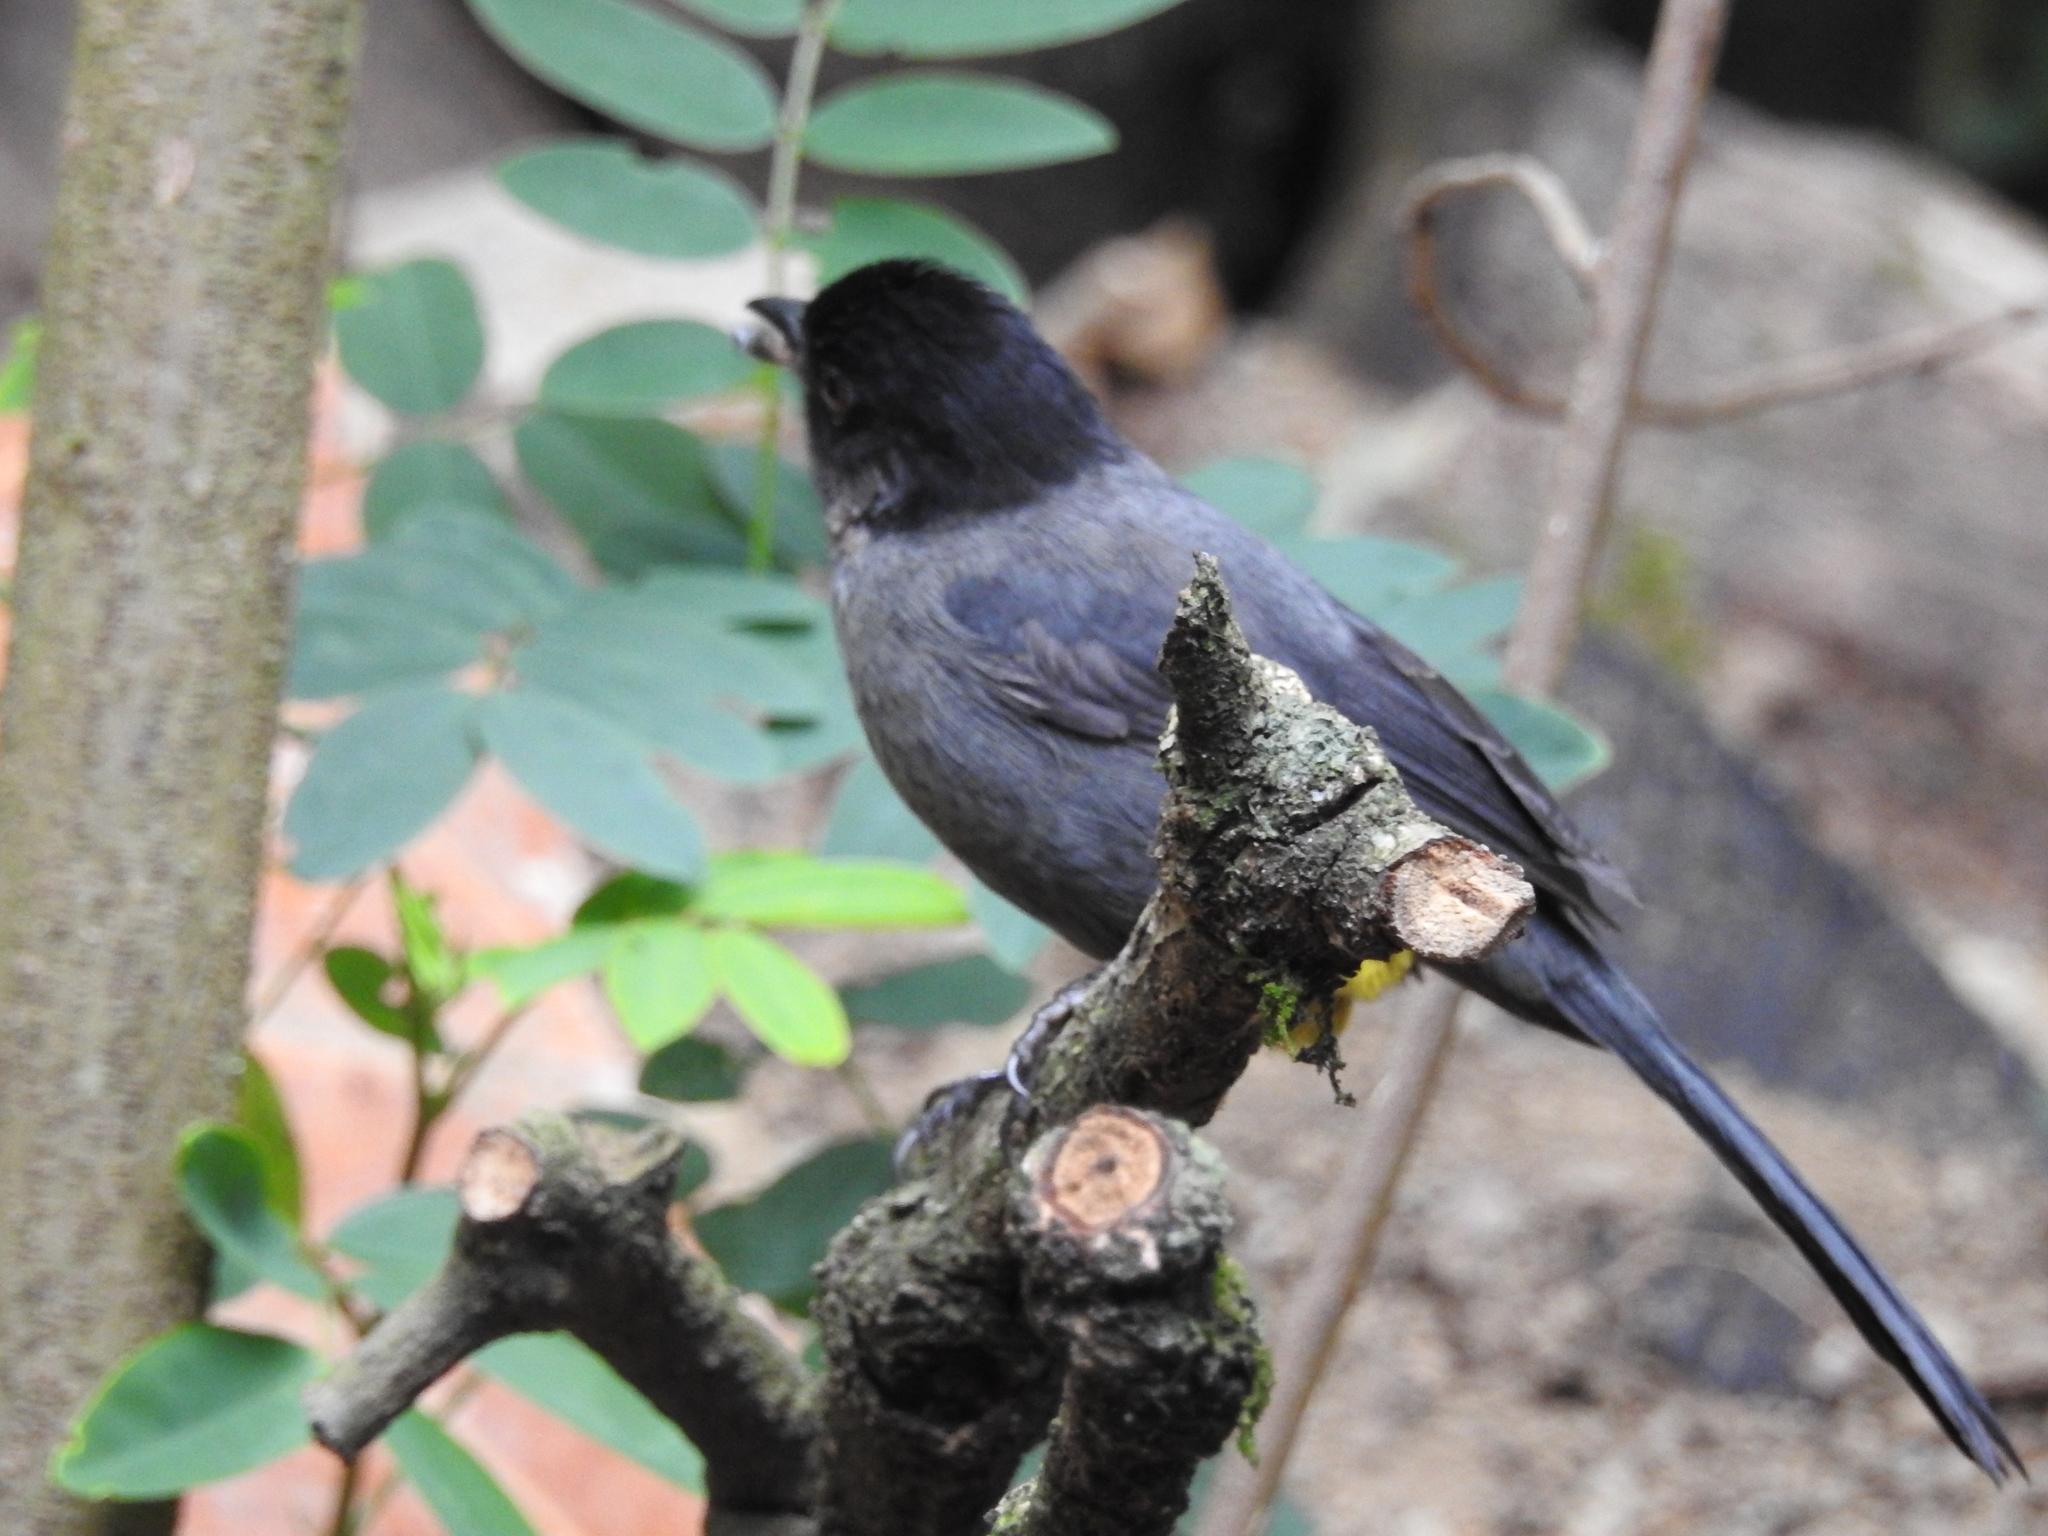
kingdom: Animalia
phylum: Chordata
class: Aves
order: Passeriformes
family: Passerellidae
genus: Atlapetes
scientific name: Atlapetes tibialis
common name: Yellow-thighed brushfinch
